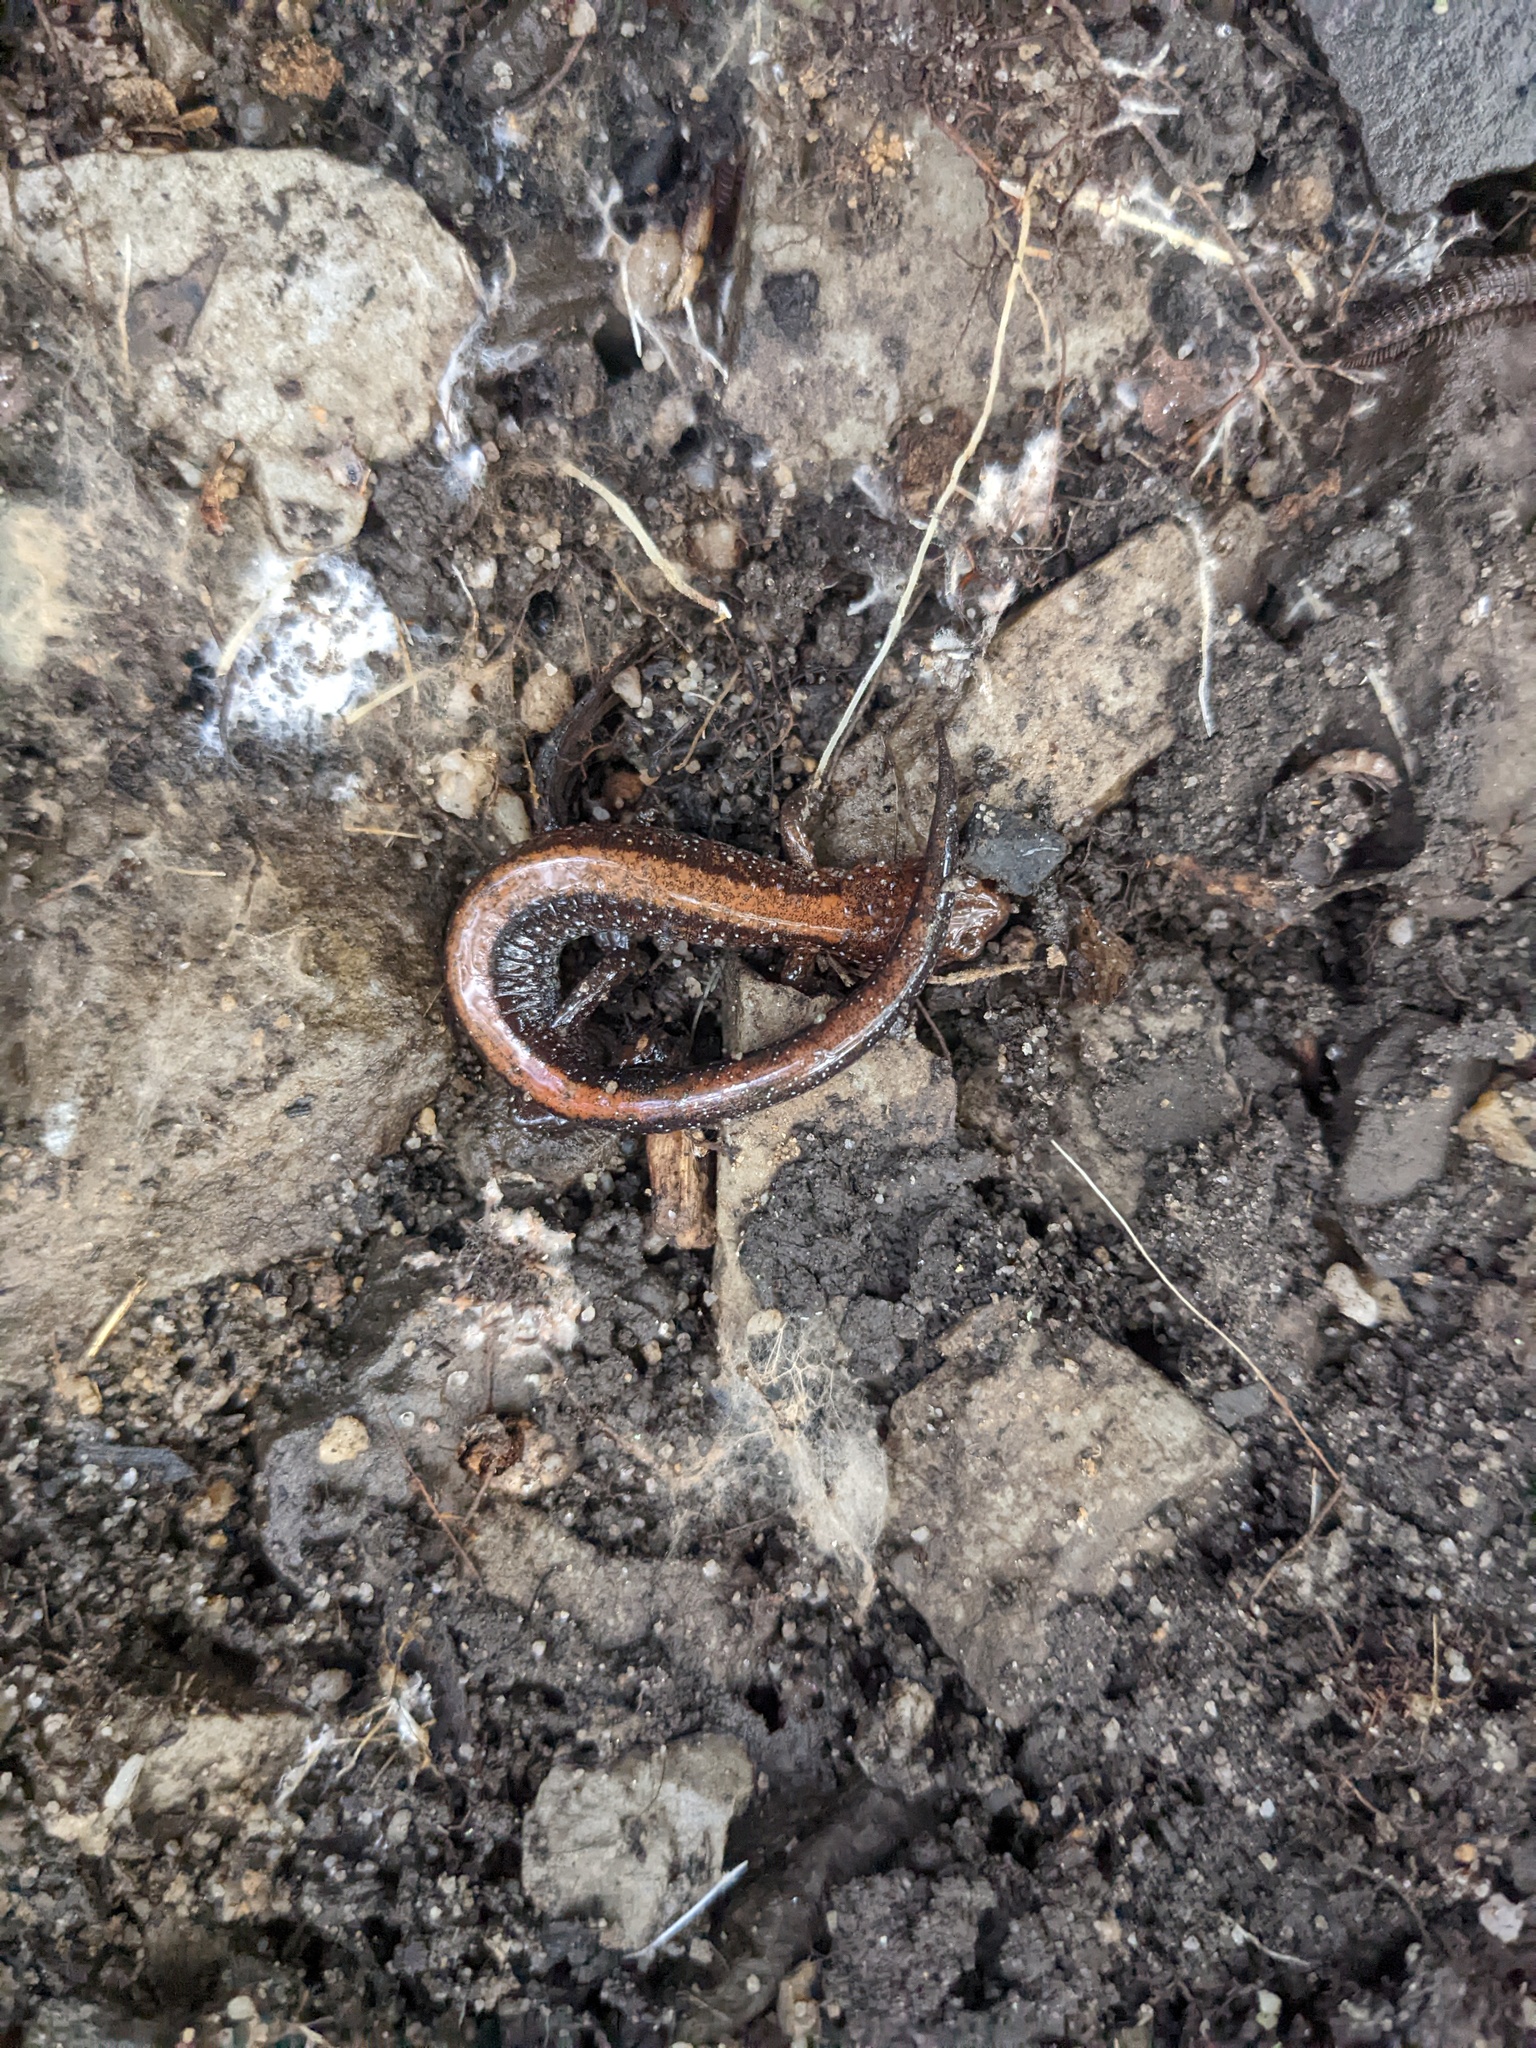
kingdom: Animalia
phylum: Chordata
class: Amphibia
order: Caudata
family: Plethodontidae
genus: Plethodon
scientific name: Plethodon cinereus
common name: Redback salamander
